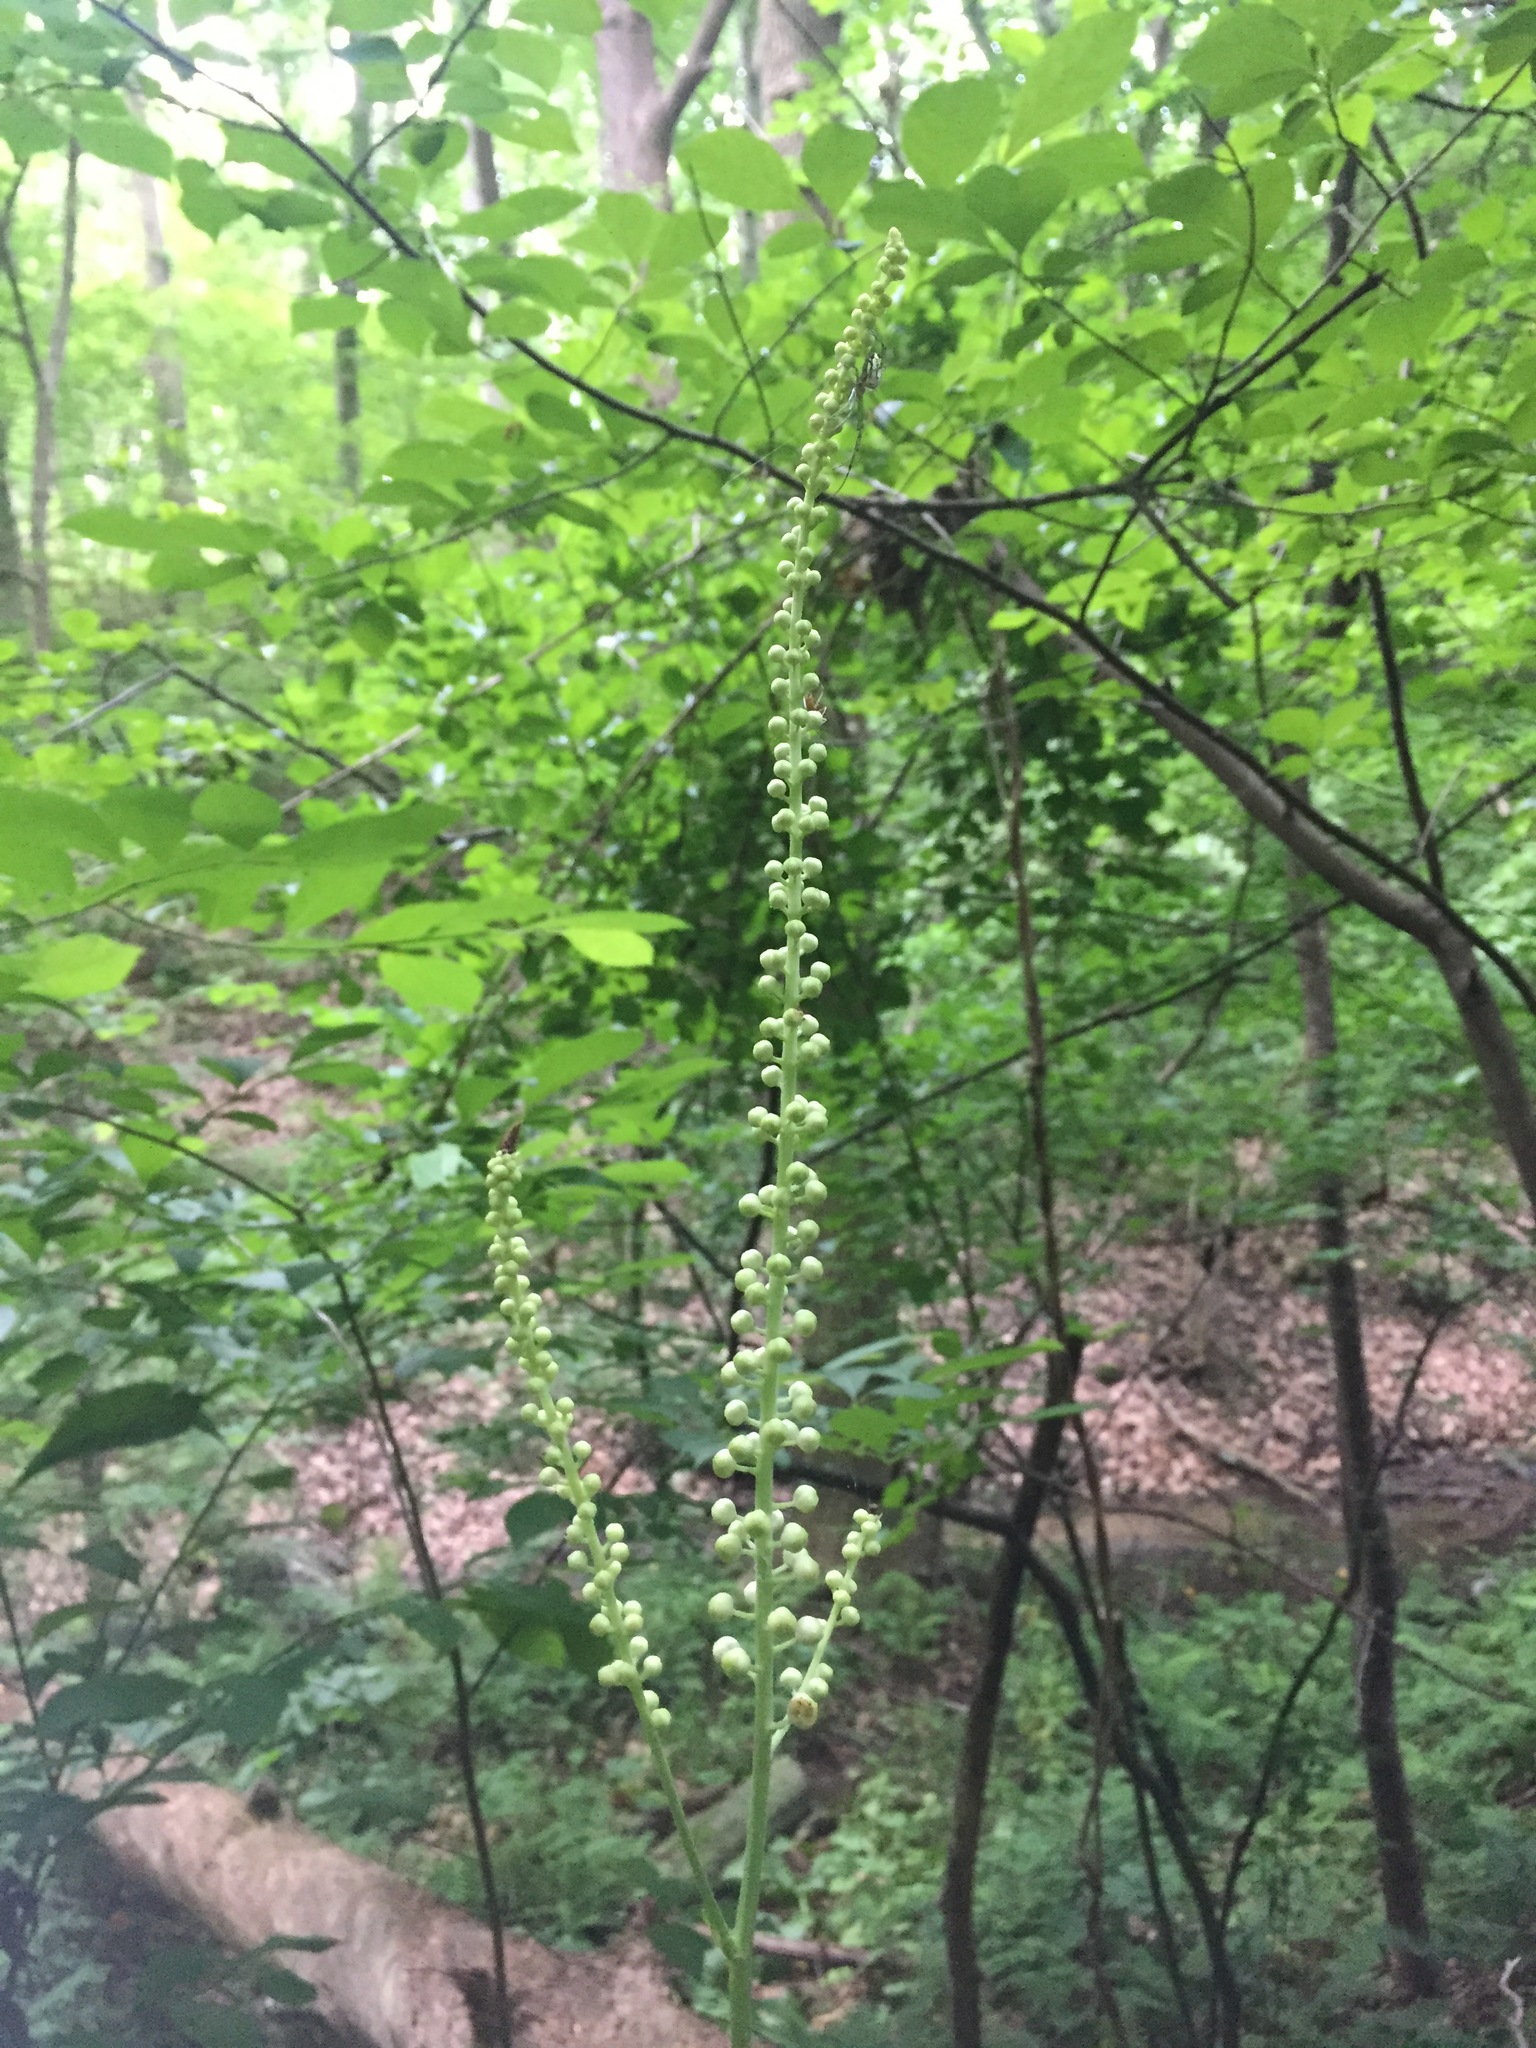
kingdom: Plantae
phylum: Tracheophyta
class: Magnoliopsida
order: Ranunculales
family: Ranunculaceae
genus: Actaea
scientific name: Actaea racemosa
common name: Black cohosh
